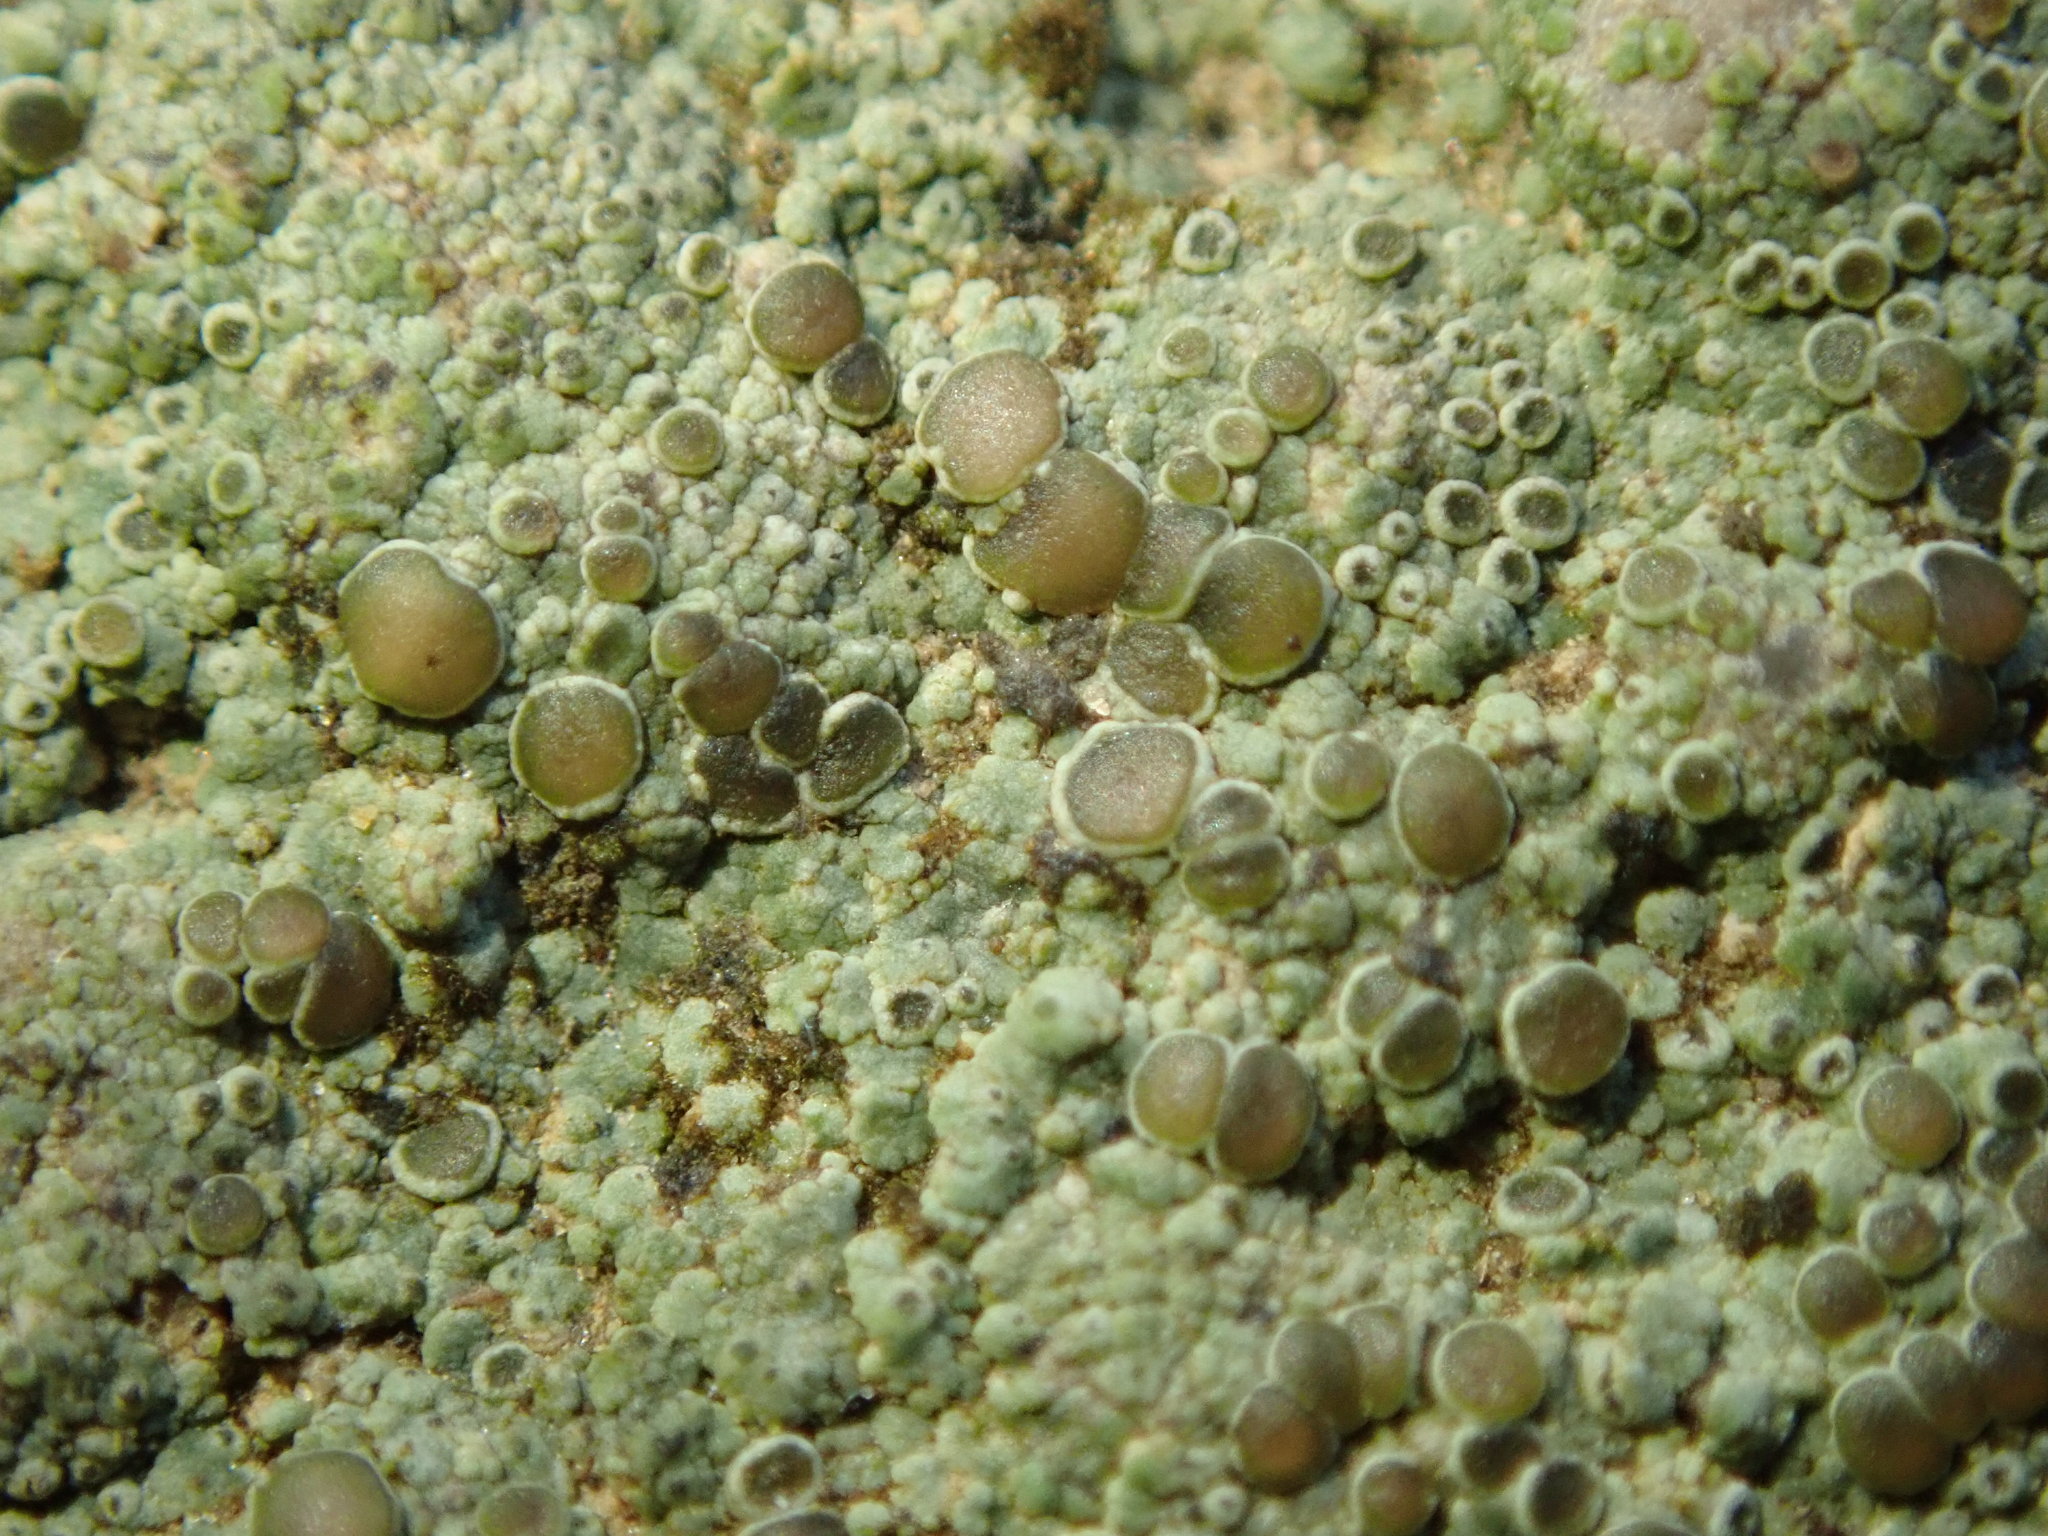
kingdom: Fungi
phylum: Ascomycota
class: Lecanoromycetes
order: Teloschistales
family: Teloschistaceae
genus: Pyrenodesmia
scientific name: Pyrenodesmia atroalba
